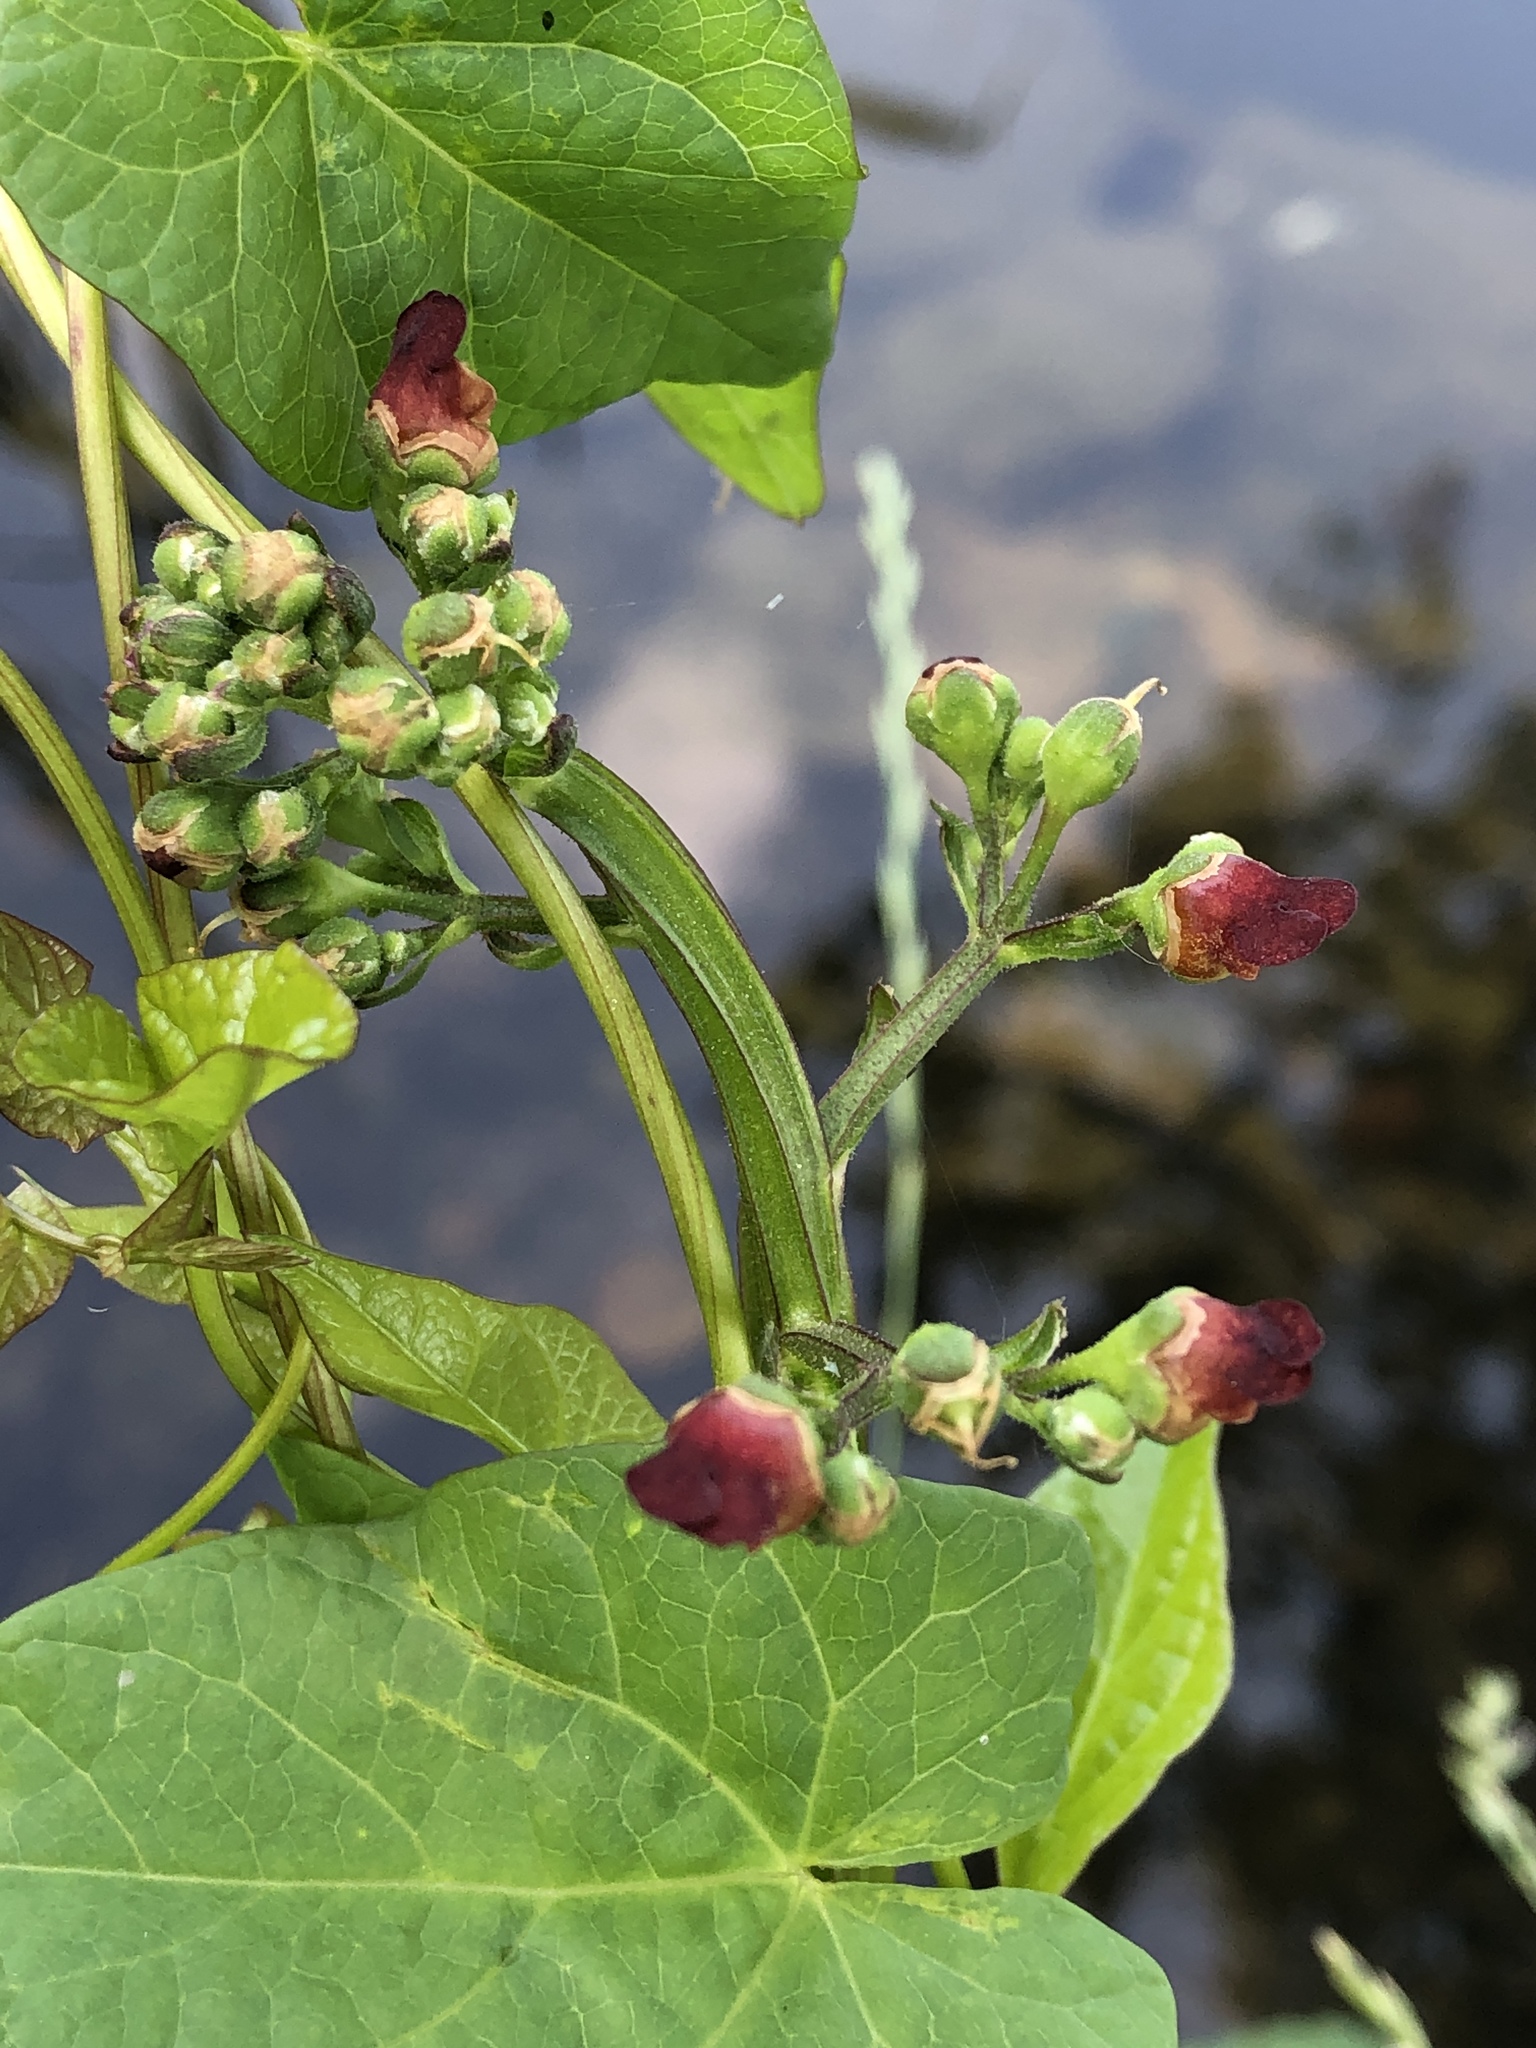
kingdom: Plantae
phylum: Tracheophyta
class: Magnoliopsida
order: Lamiales
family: Scrophulariaceae
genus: Scrophularia
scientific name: Scrophularia nodosa
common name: Common figwort
